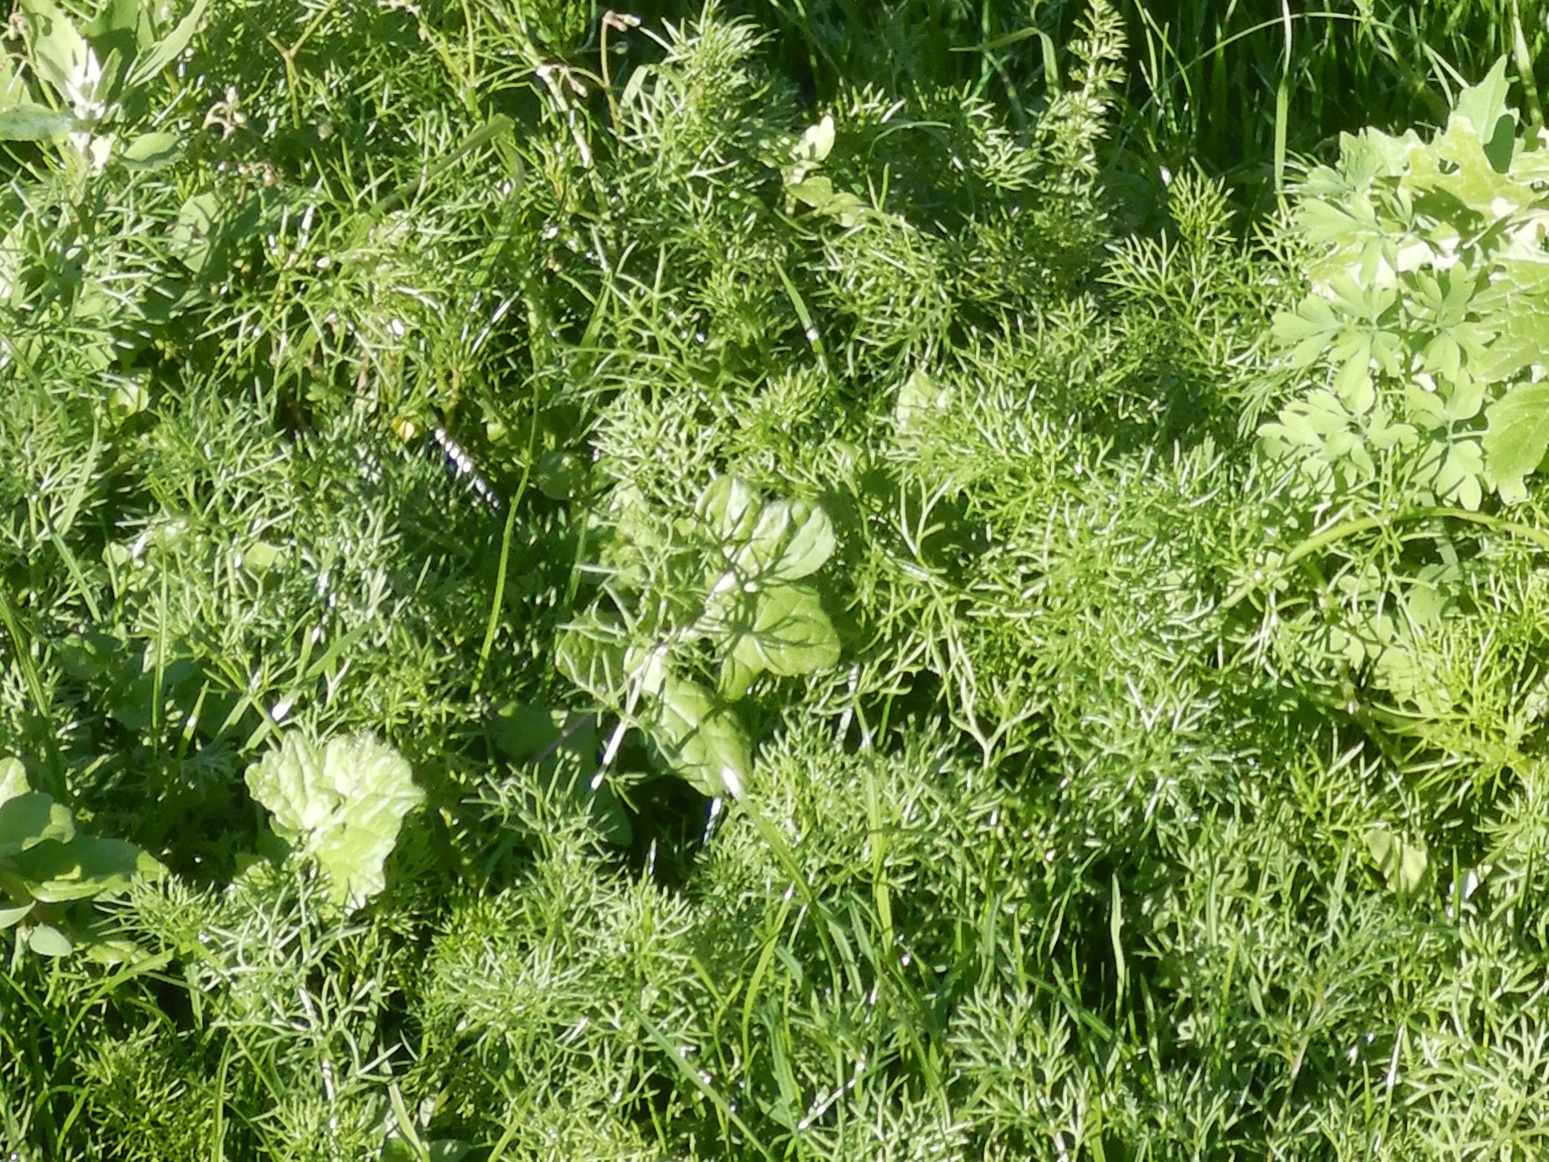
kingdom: Plantae
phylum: Tracheophyta
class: Magnoliopsida
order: Asterales
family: Asteraceae
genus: Tripleurospermum
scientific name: Tripleurospermum inodorum
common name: Scentless mayweed
